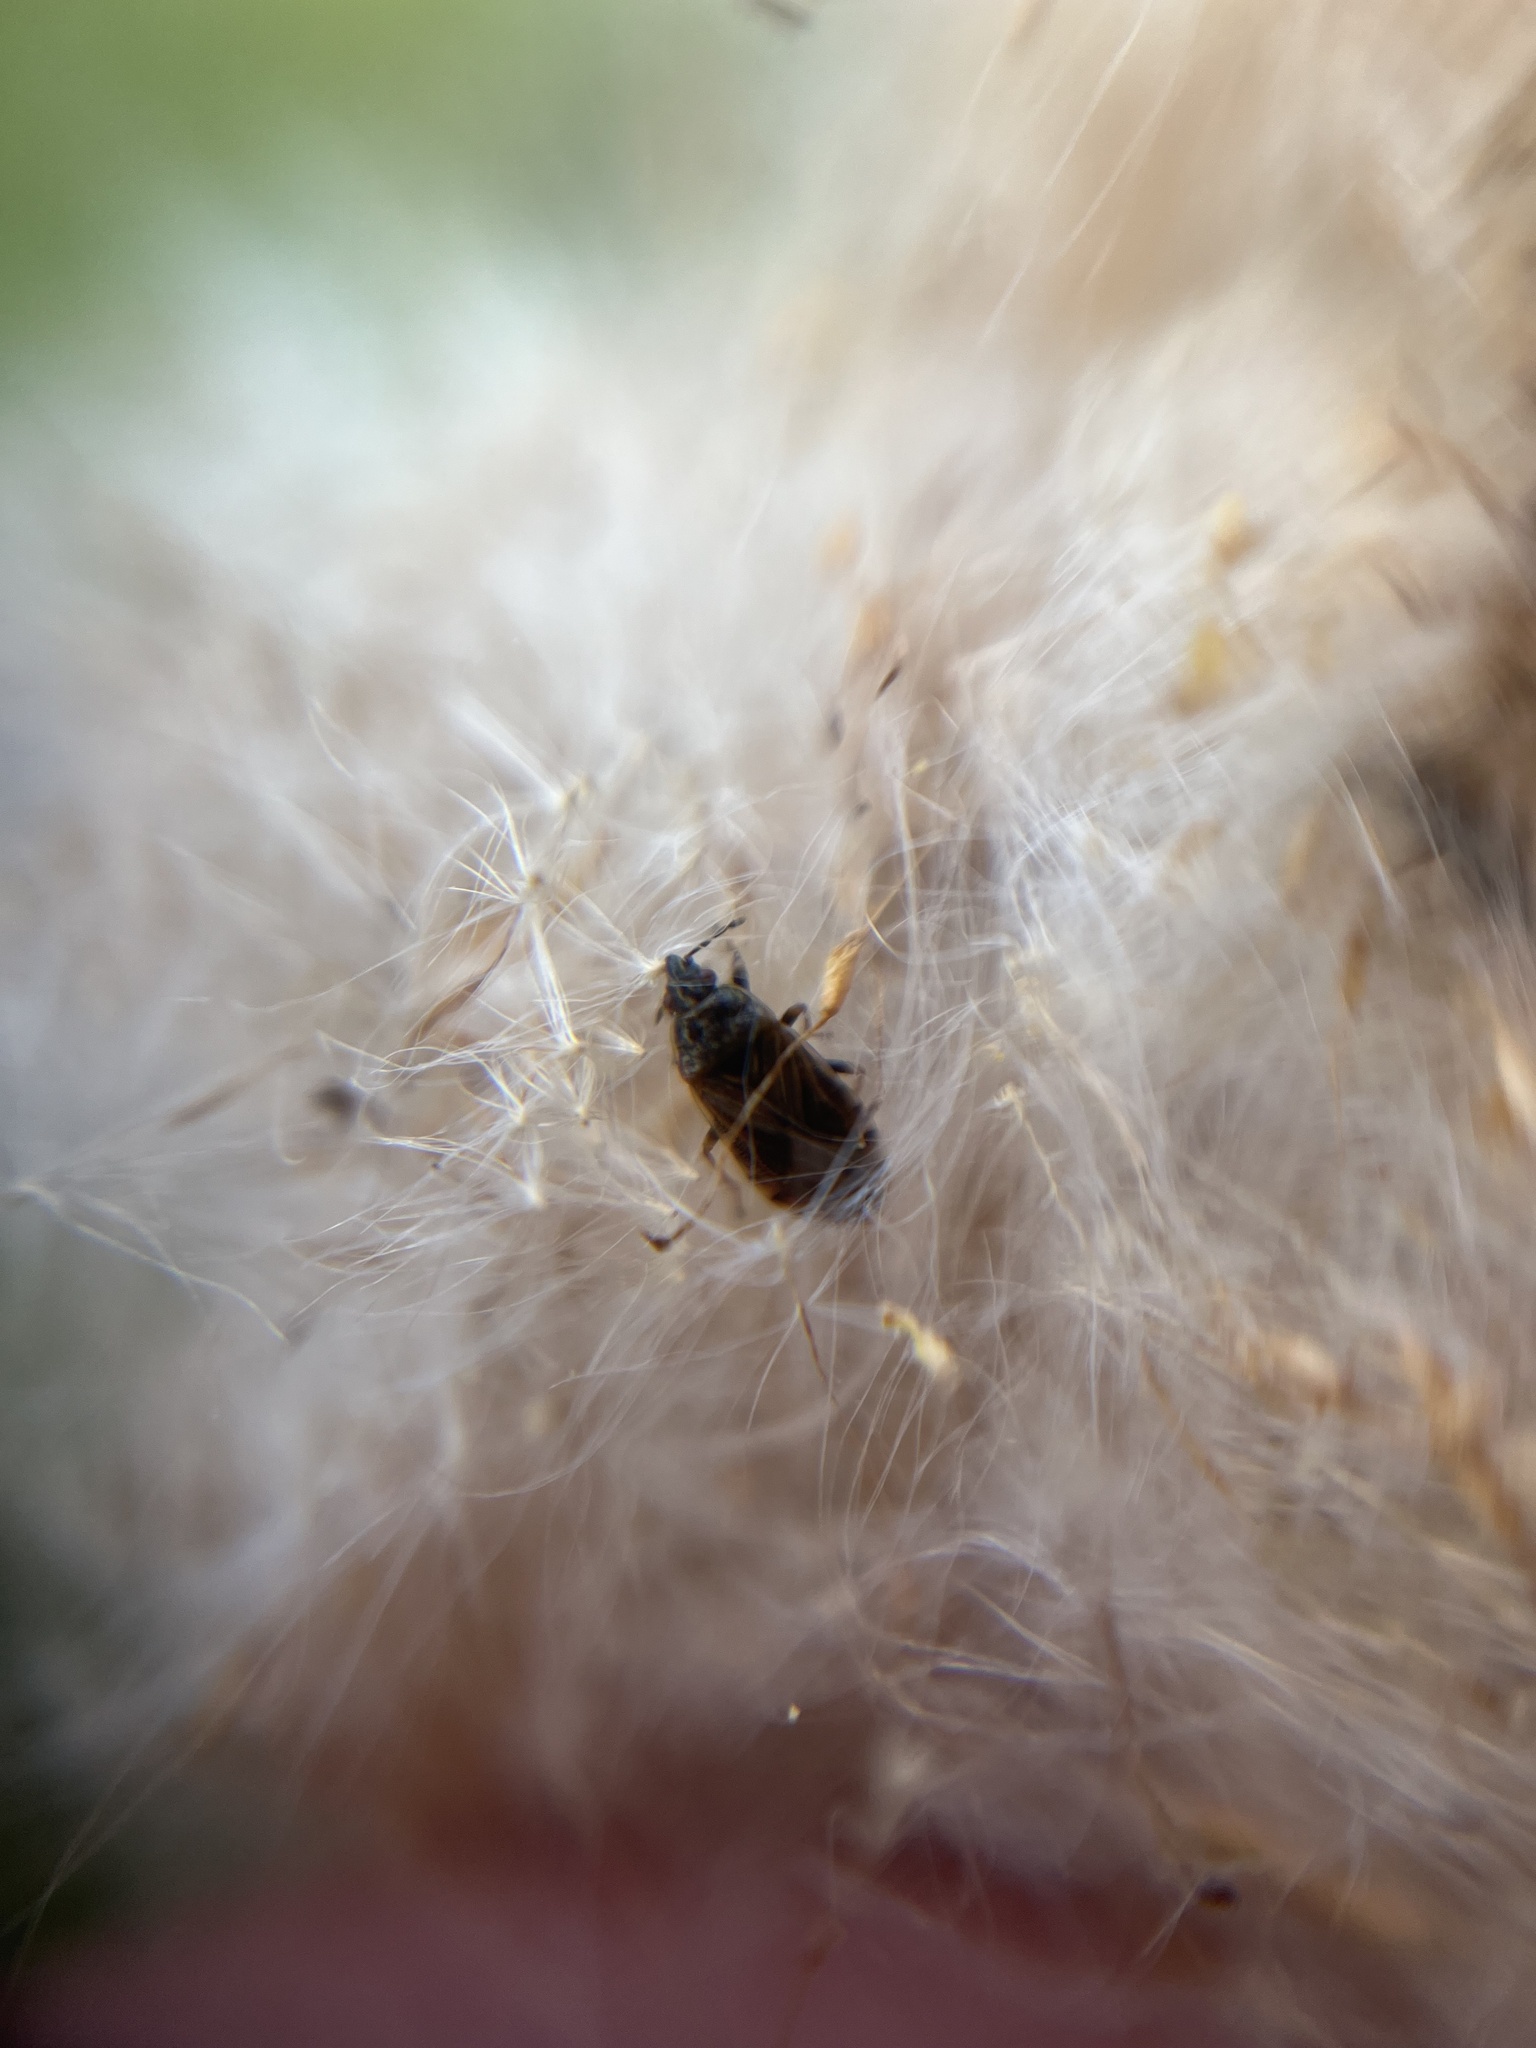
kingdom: Animalia
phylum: Arthropoda
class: Insecta
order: Hemiptera
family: Artheneidae
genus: Chilacis
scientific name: Chilacis typhae
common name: Cattail bug
